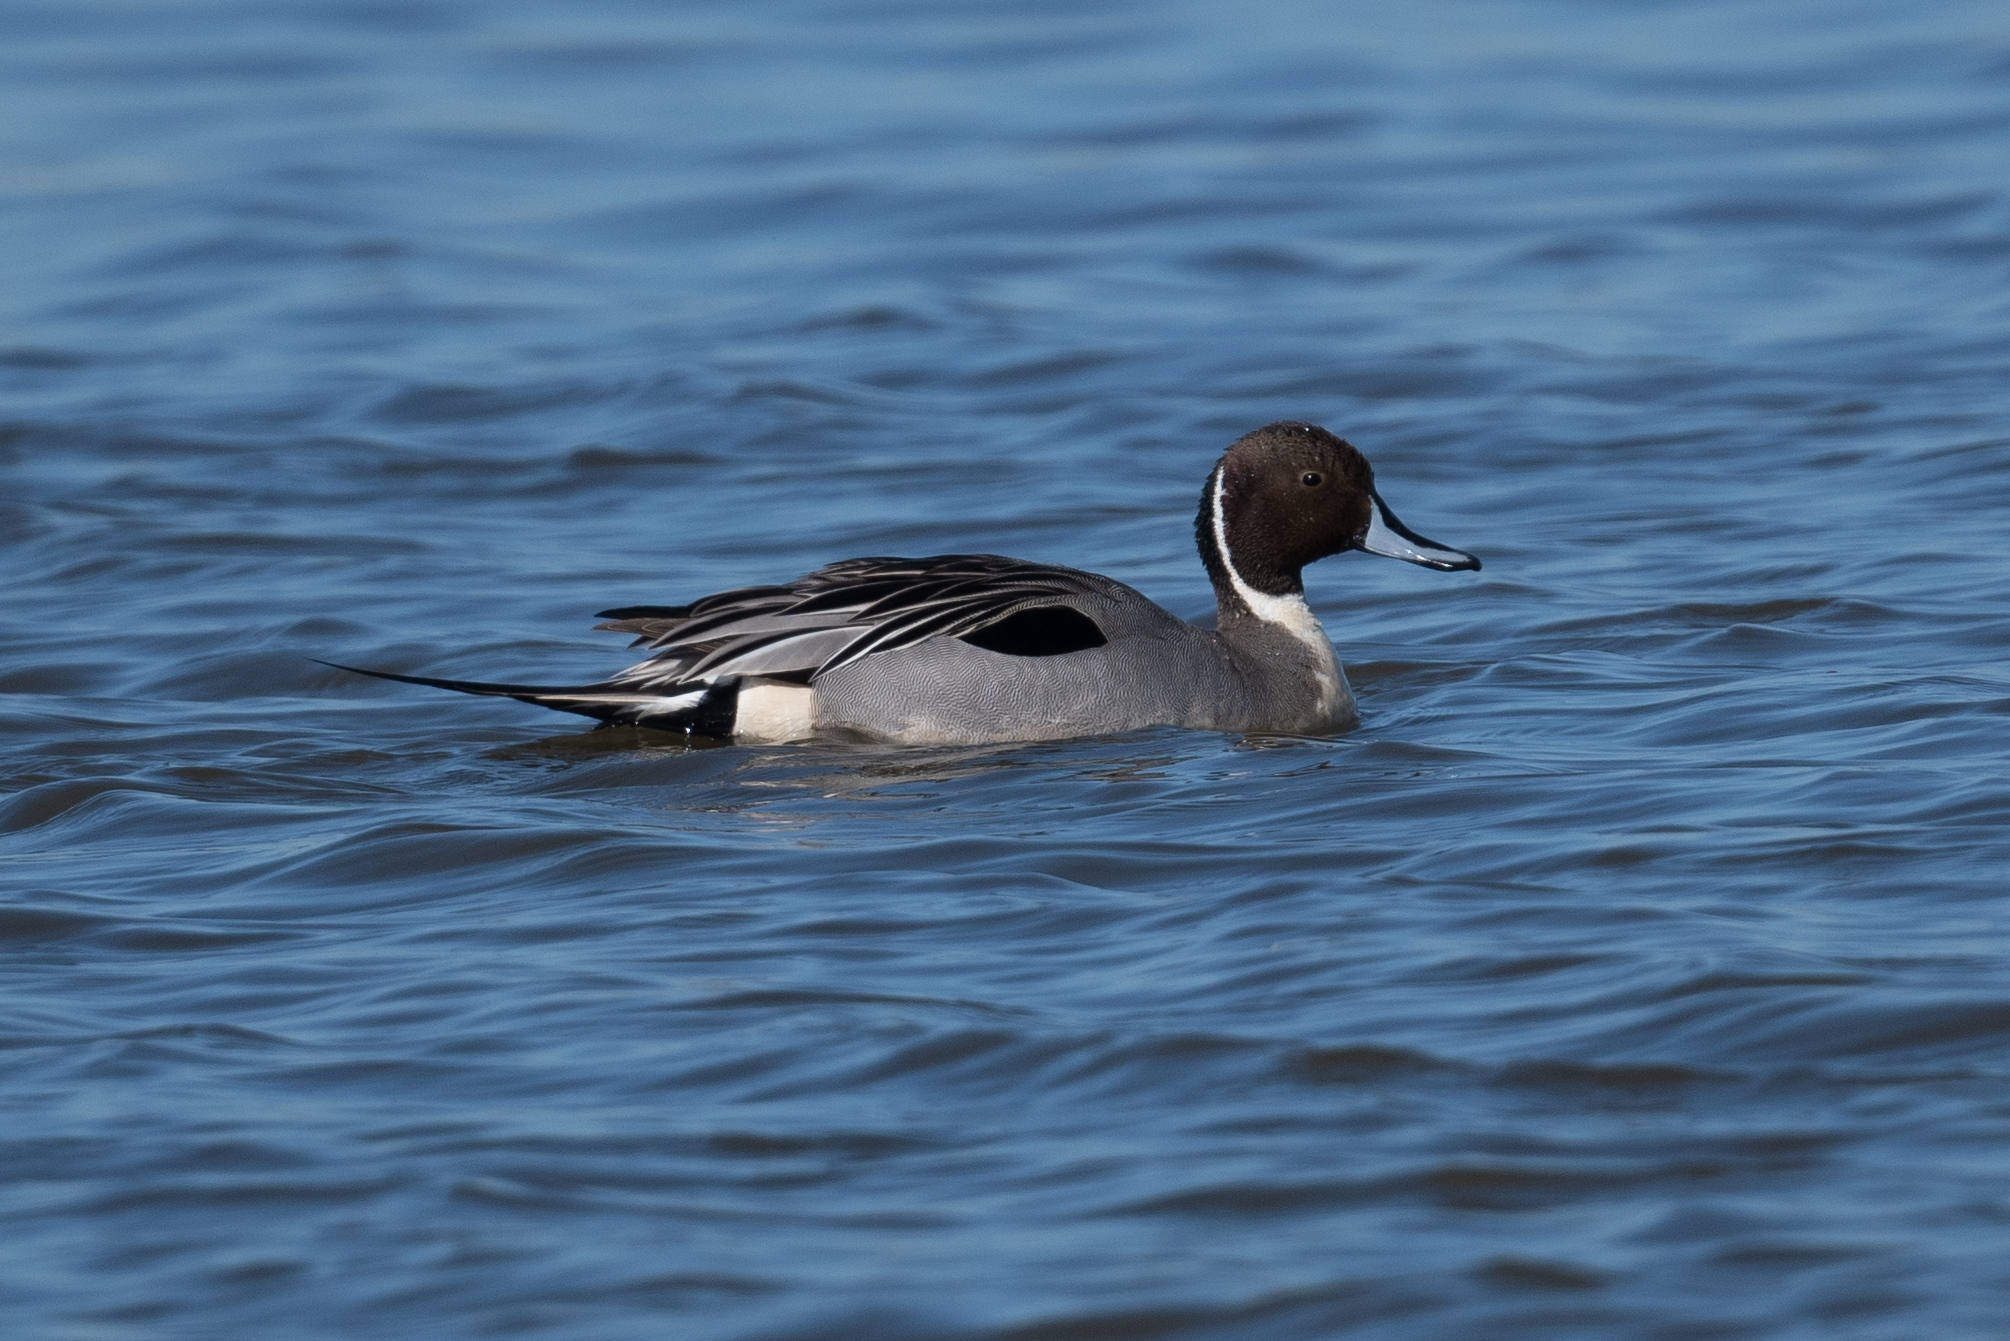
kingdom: Animalia
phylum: Chordata
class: Aves
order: Anseriformes
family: Anatidae
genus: Anas
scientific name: Anas acuta
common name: Northern pintail
